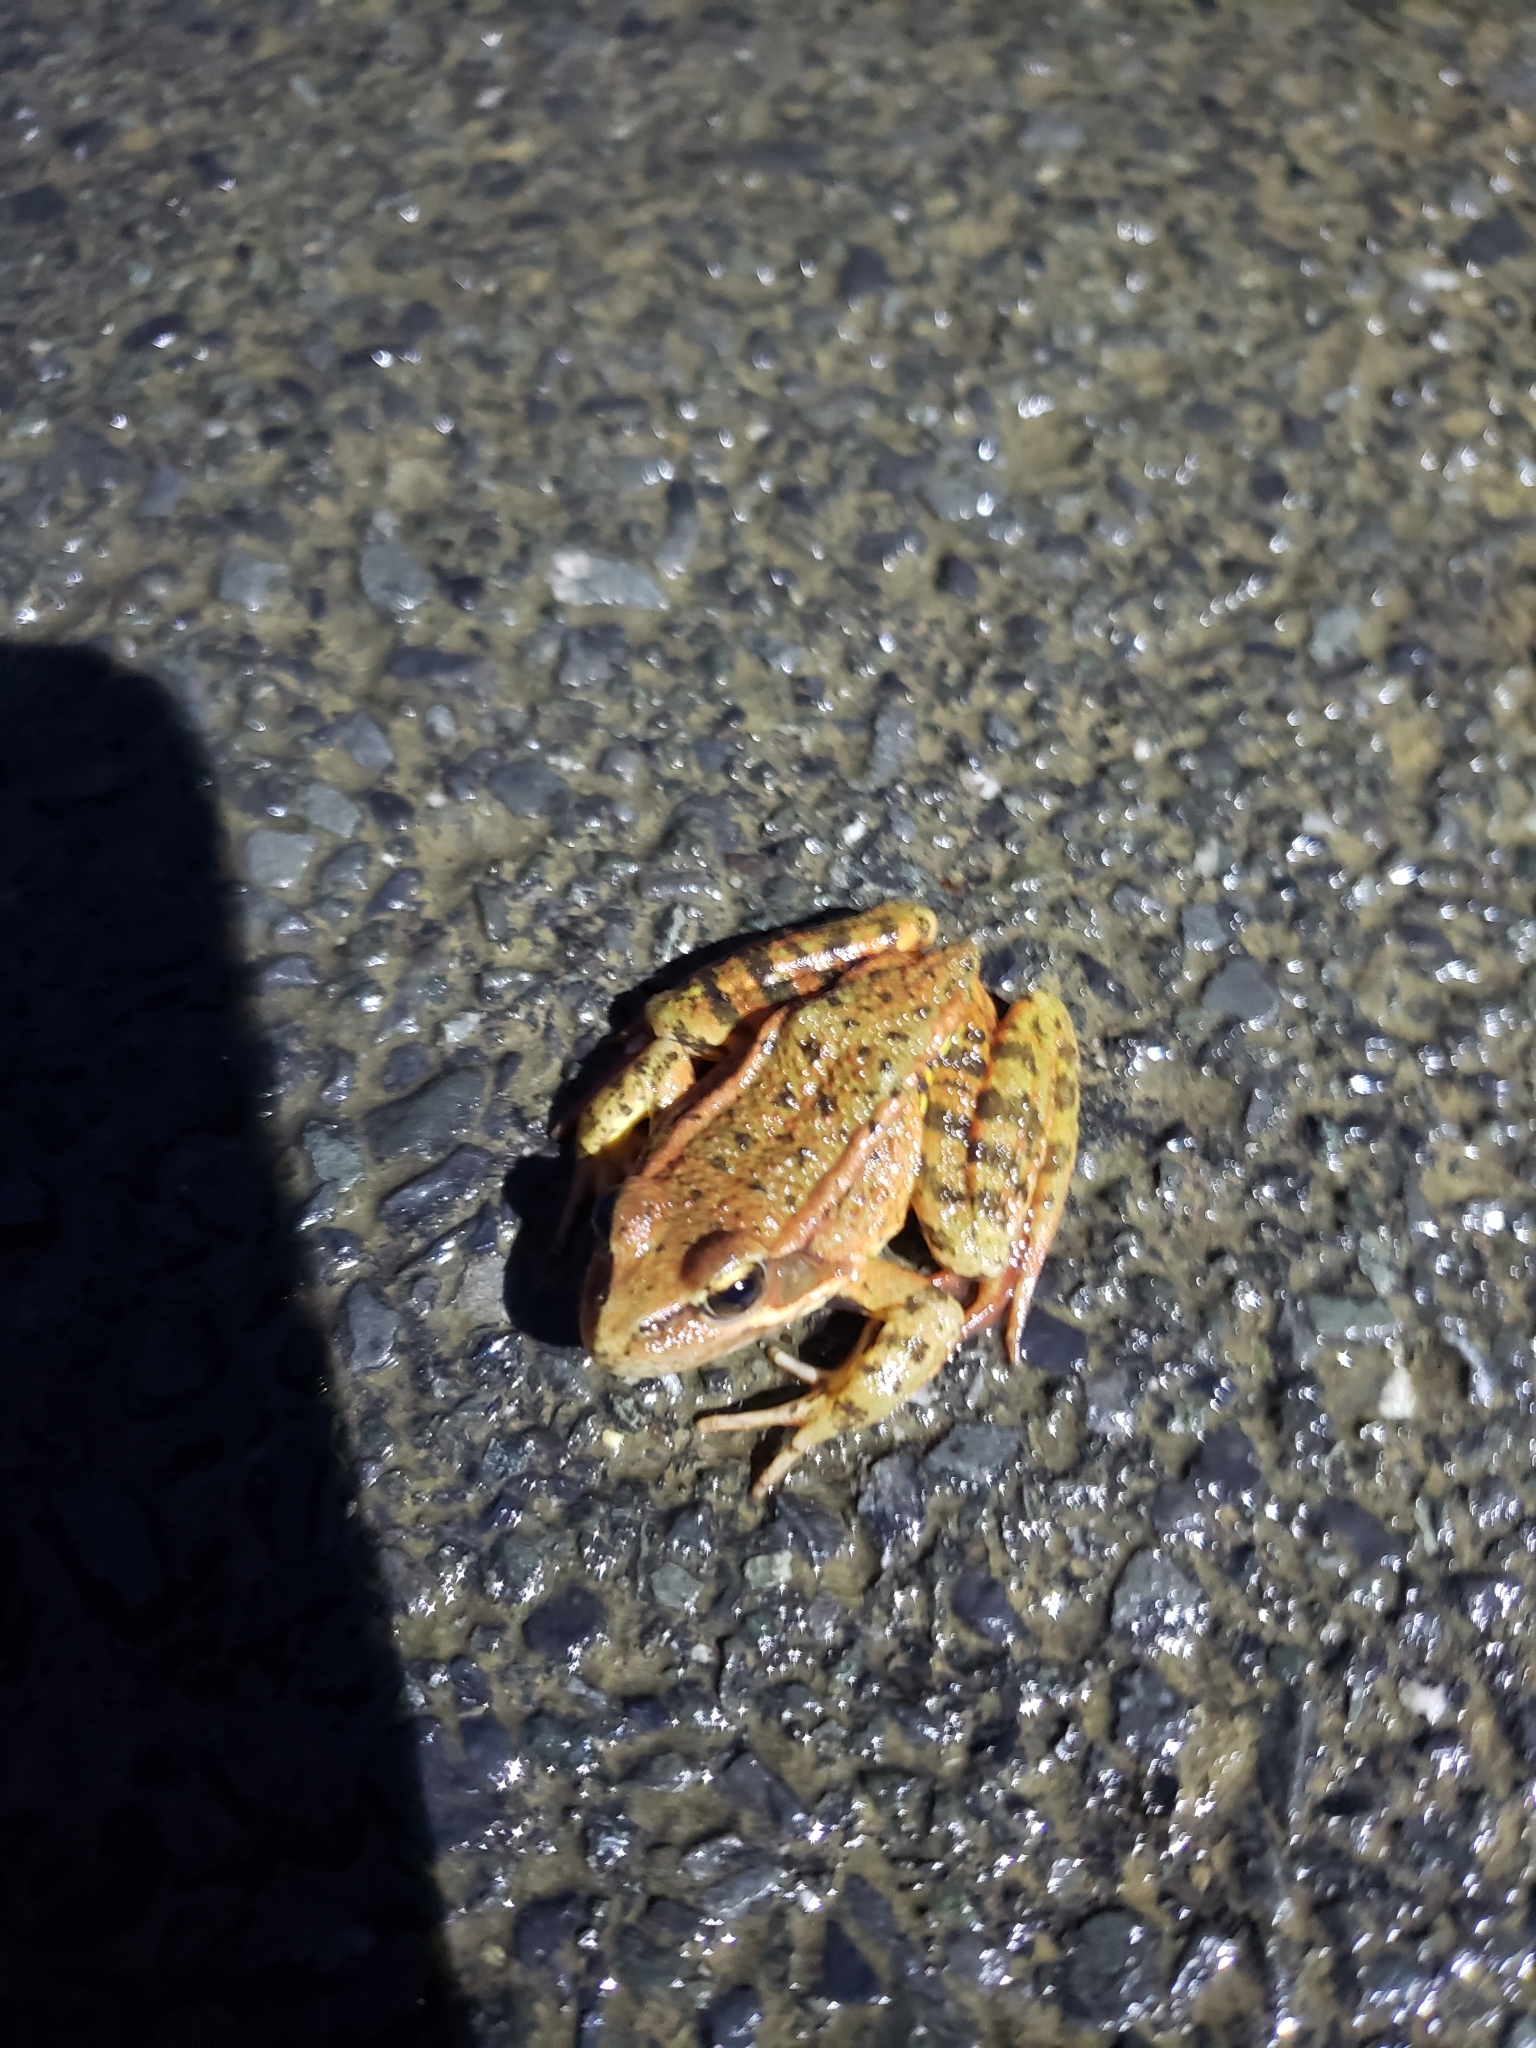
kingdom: Animalia
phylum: Chordata
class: Amphibia
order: Anura
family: Ranidae
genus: Rana
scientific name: Rana draytonii
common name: California red-legged frog
